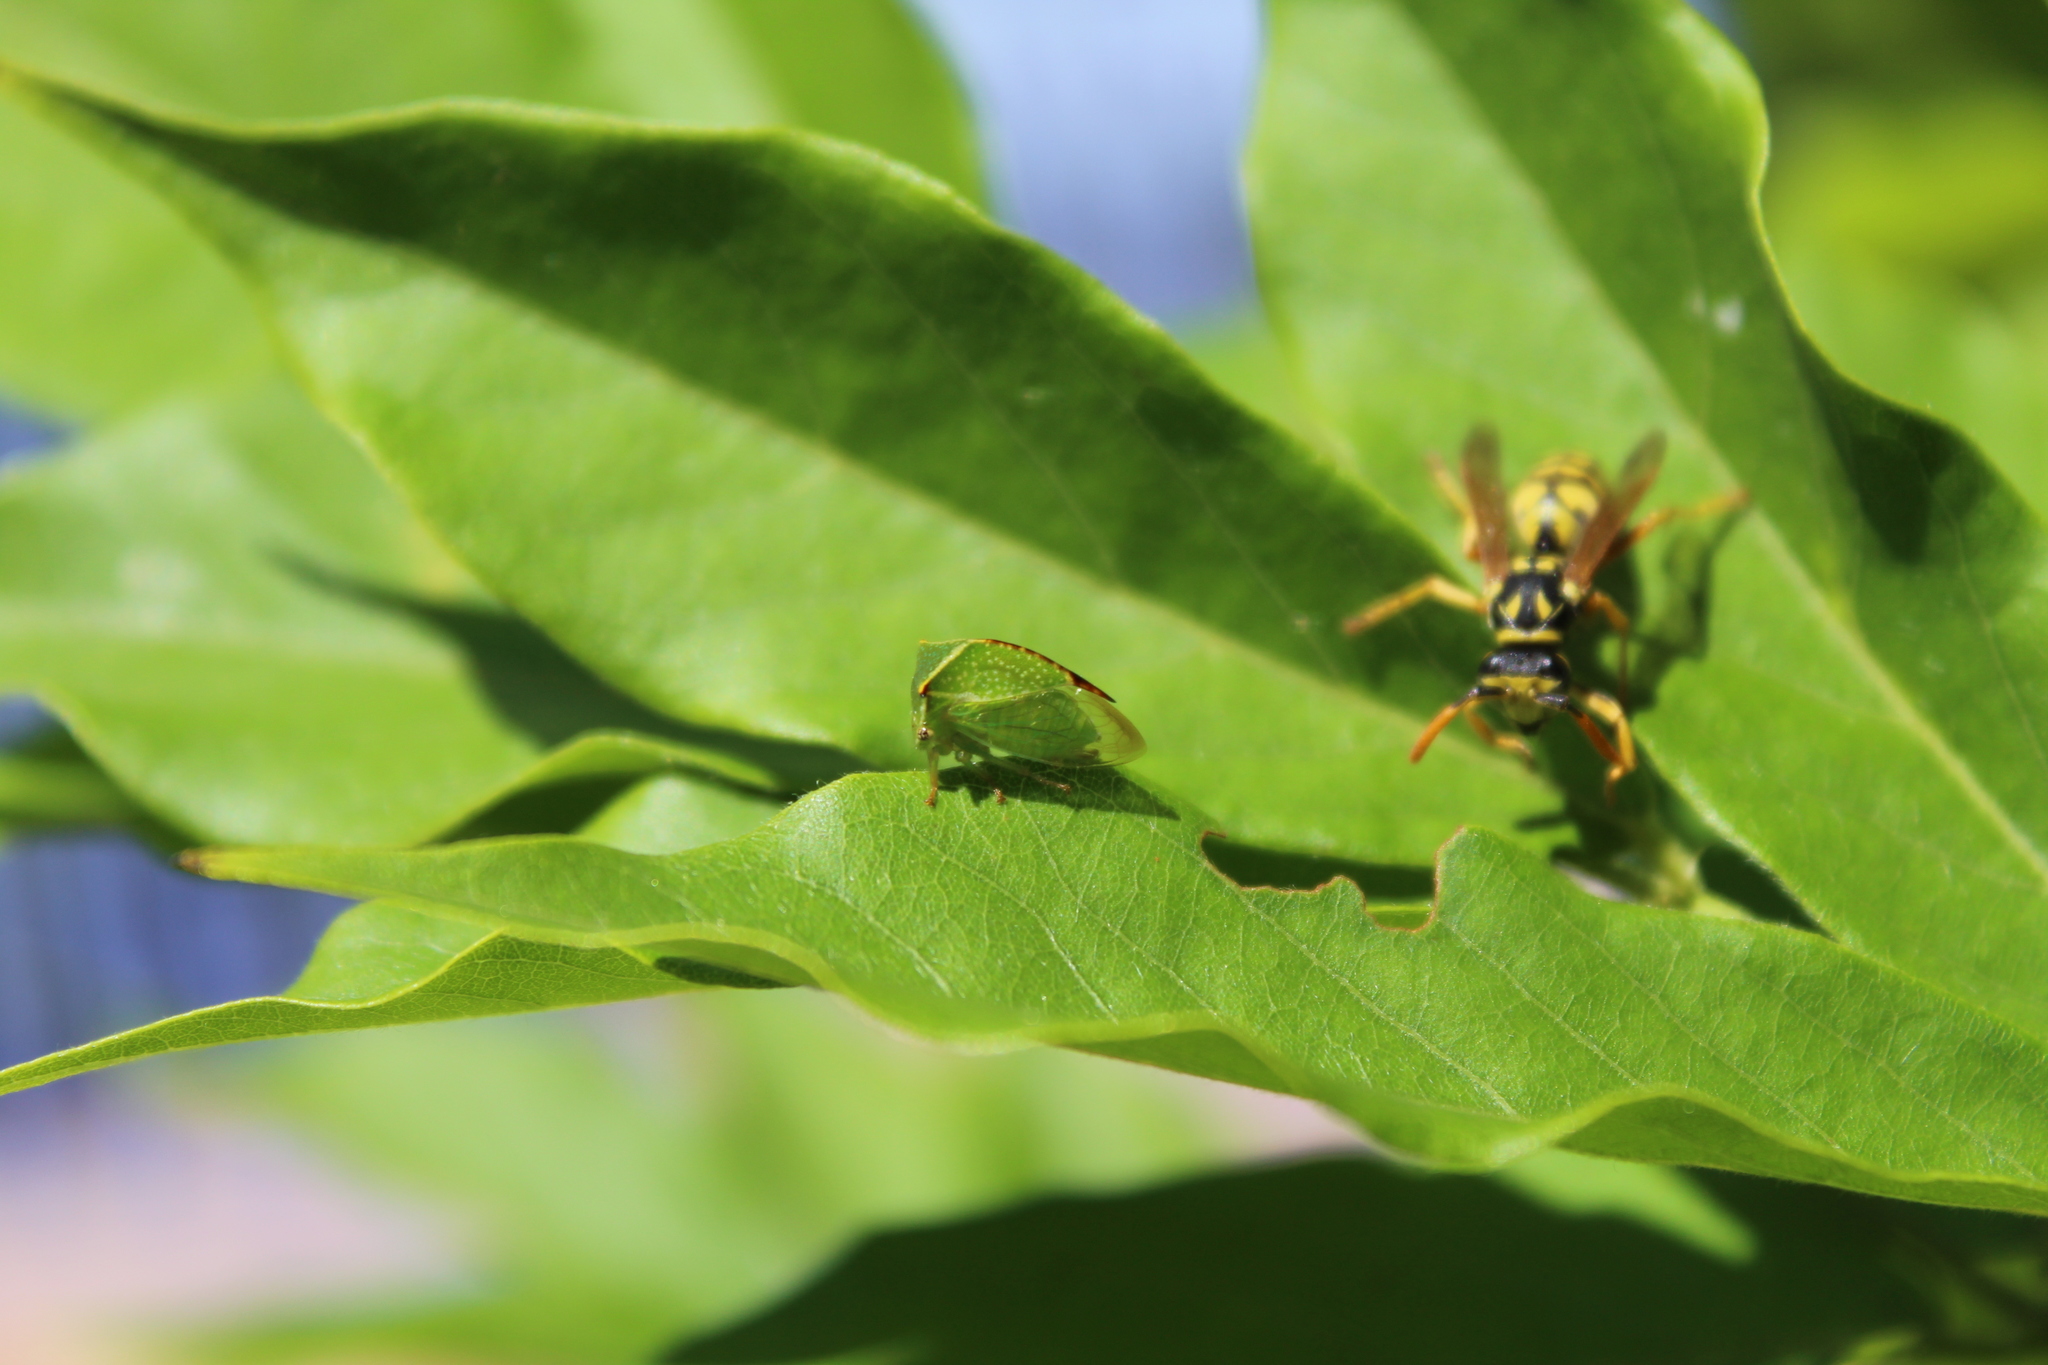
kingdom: Animalia
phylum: Arthropoda
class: Insecta
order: Hemiptera
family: Membracidae
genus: Stictocephala
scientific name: Stictocephala bisonia
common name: American buffalo treehopper
